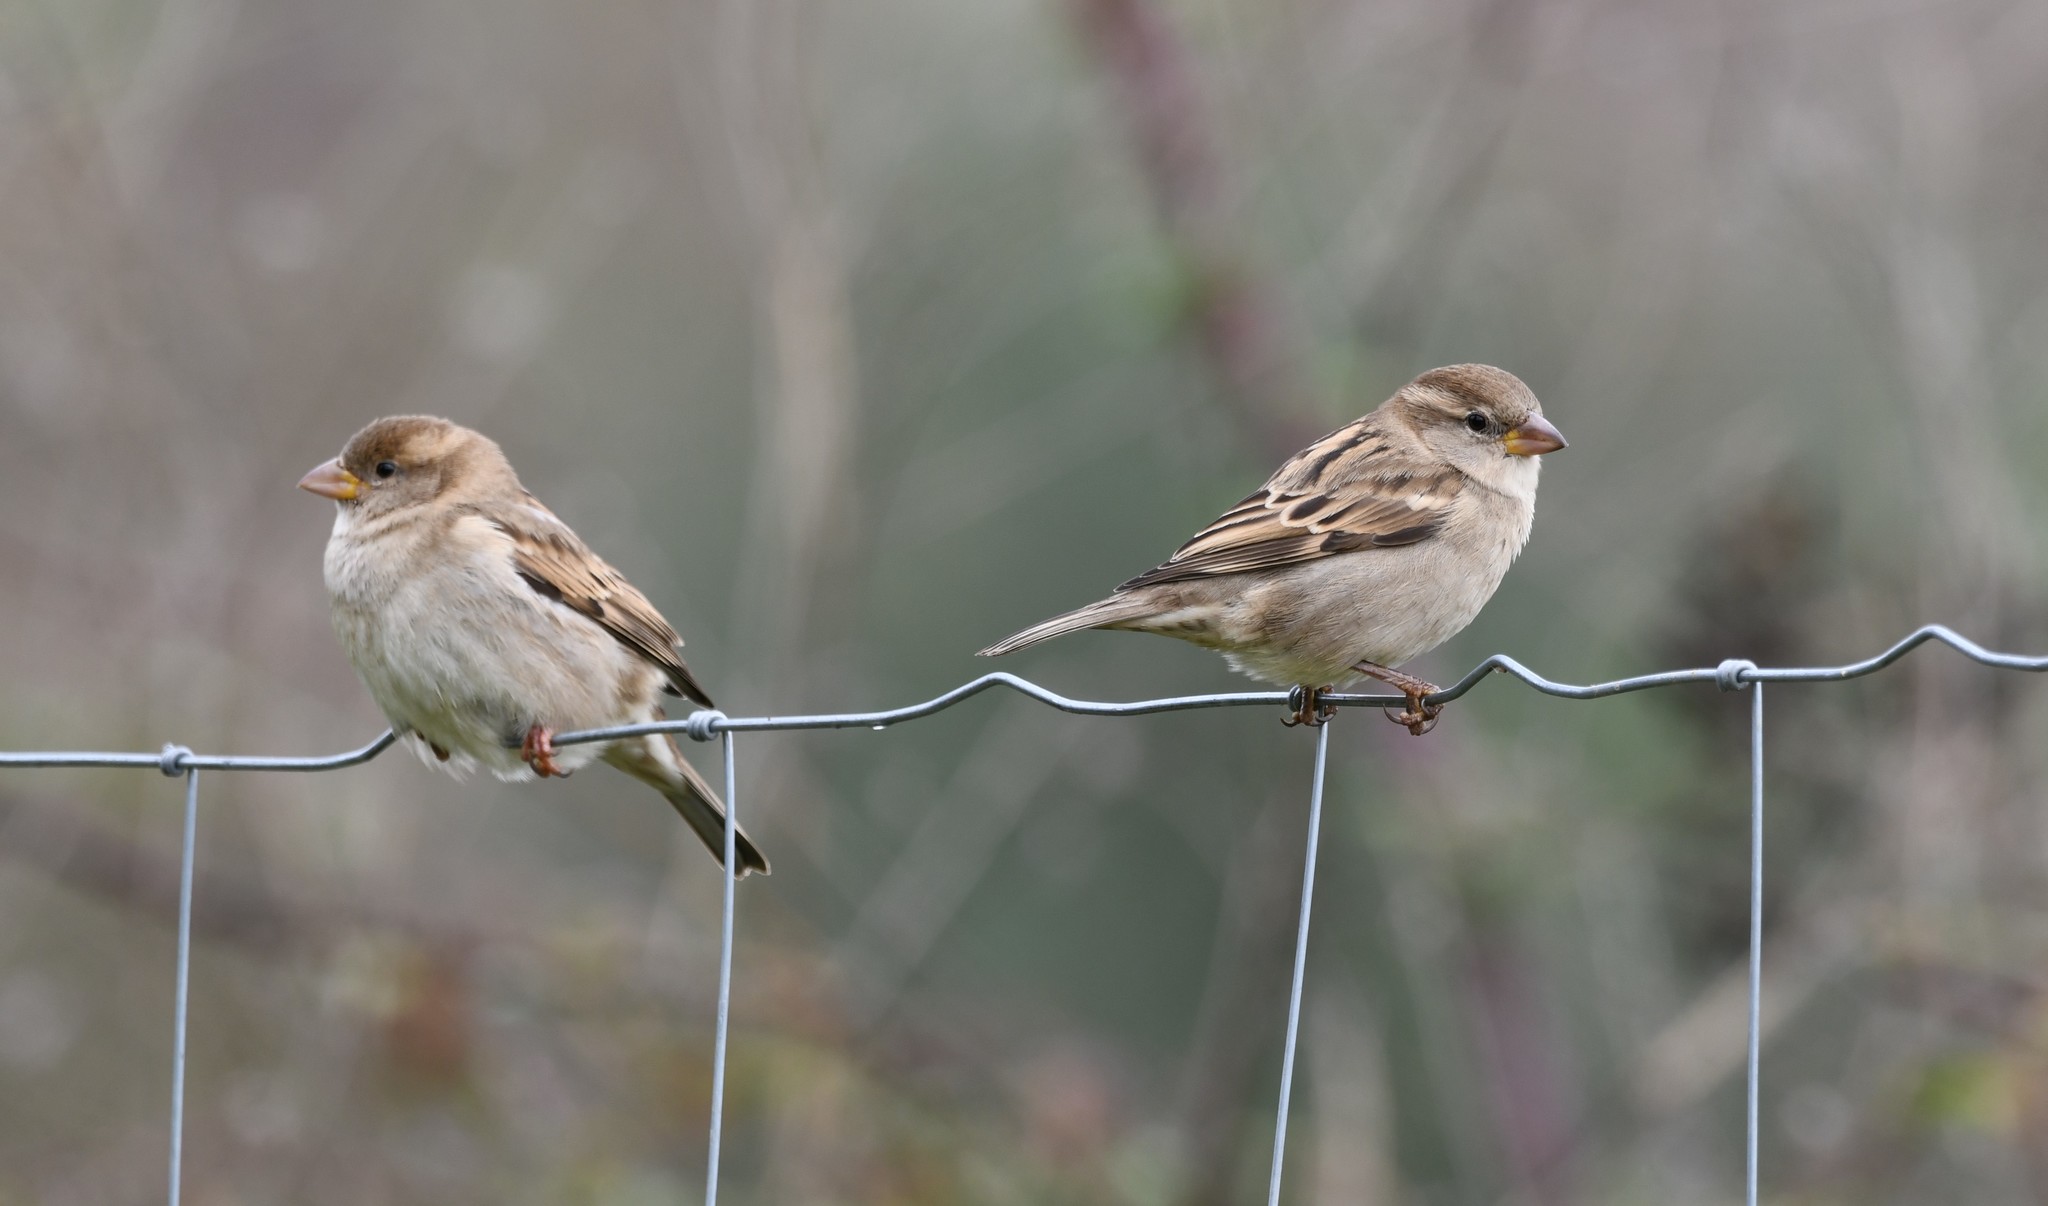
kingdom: Animalia
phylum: Chordata
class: Aves
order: Passeriformes
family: Passeridae
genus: Passer
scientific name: Passer domesticus
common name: House sparrow
